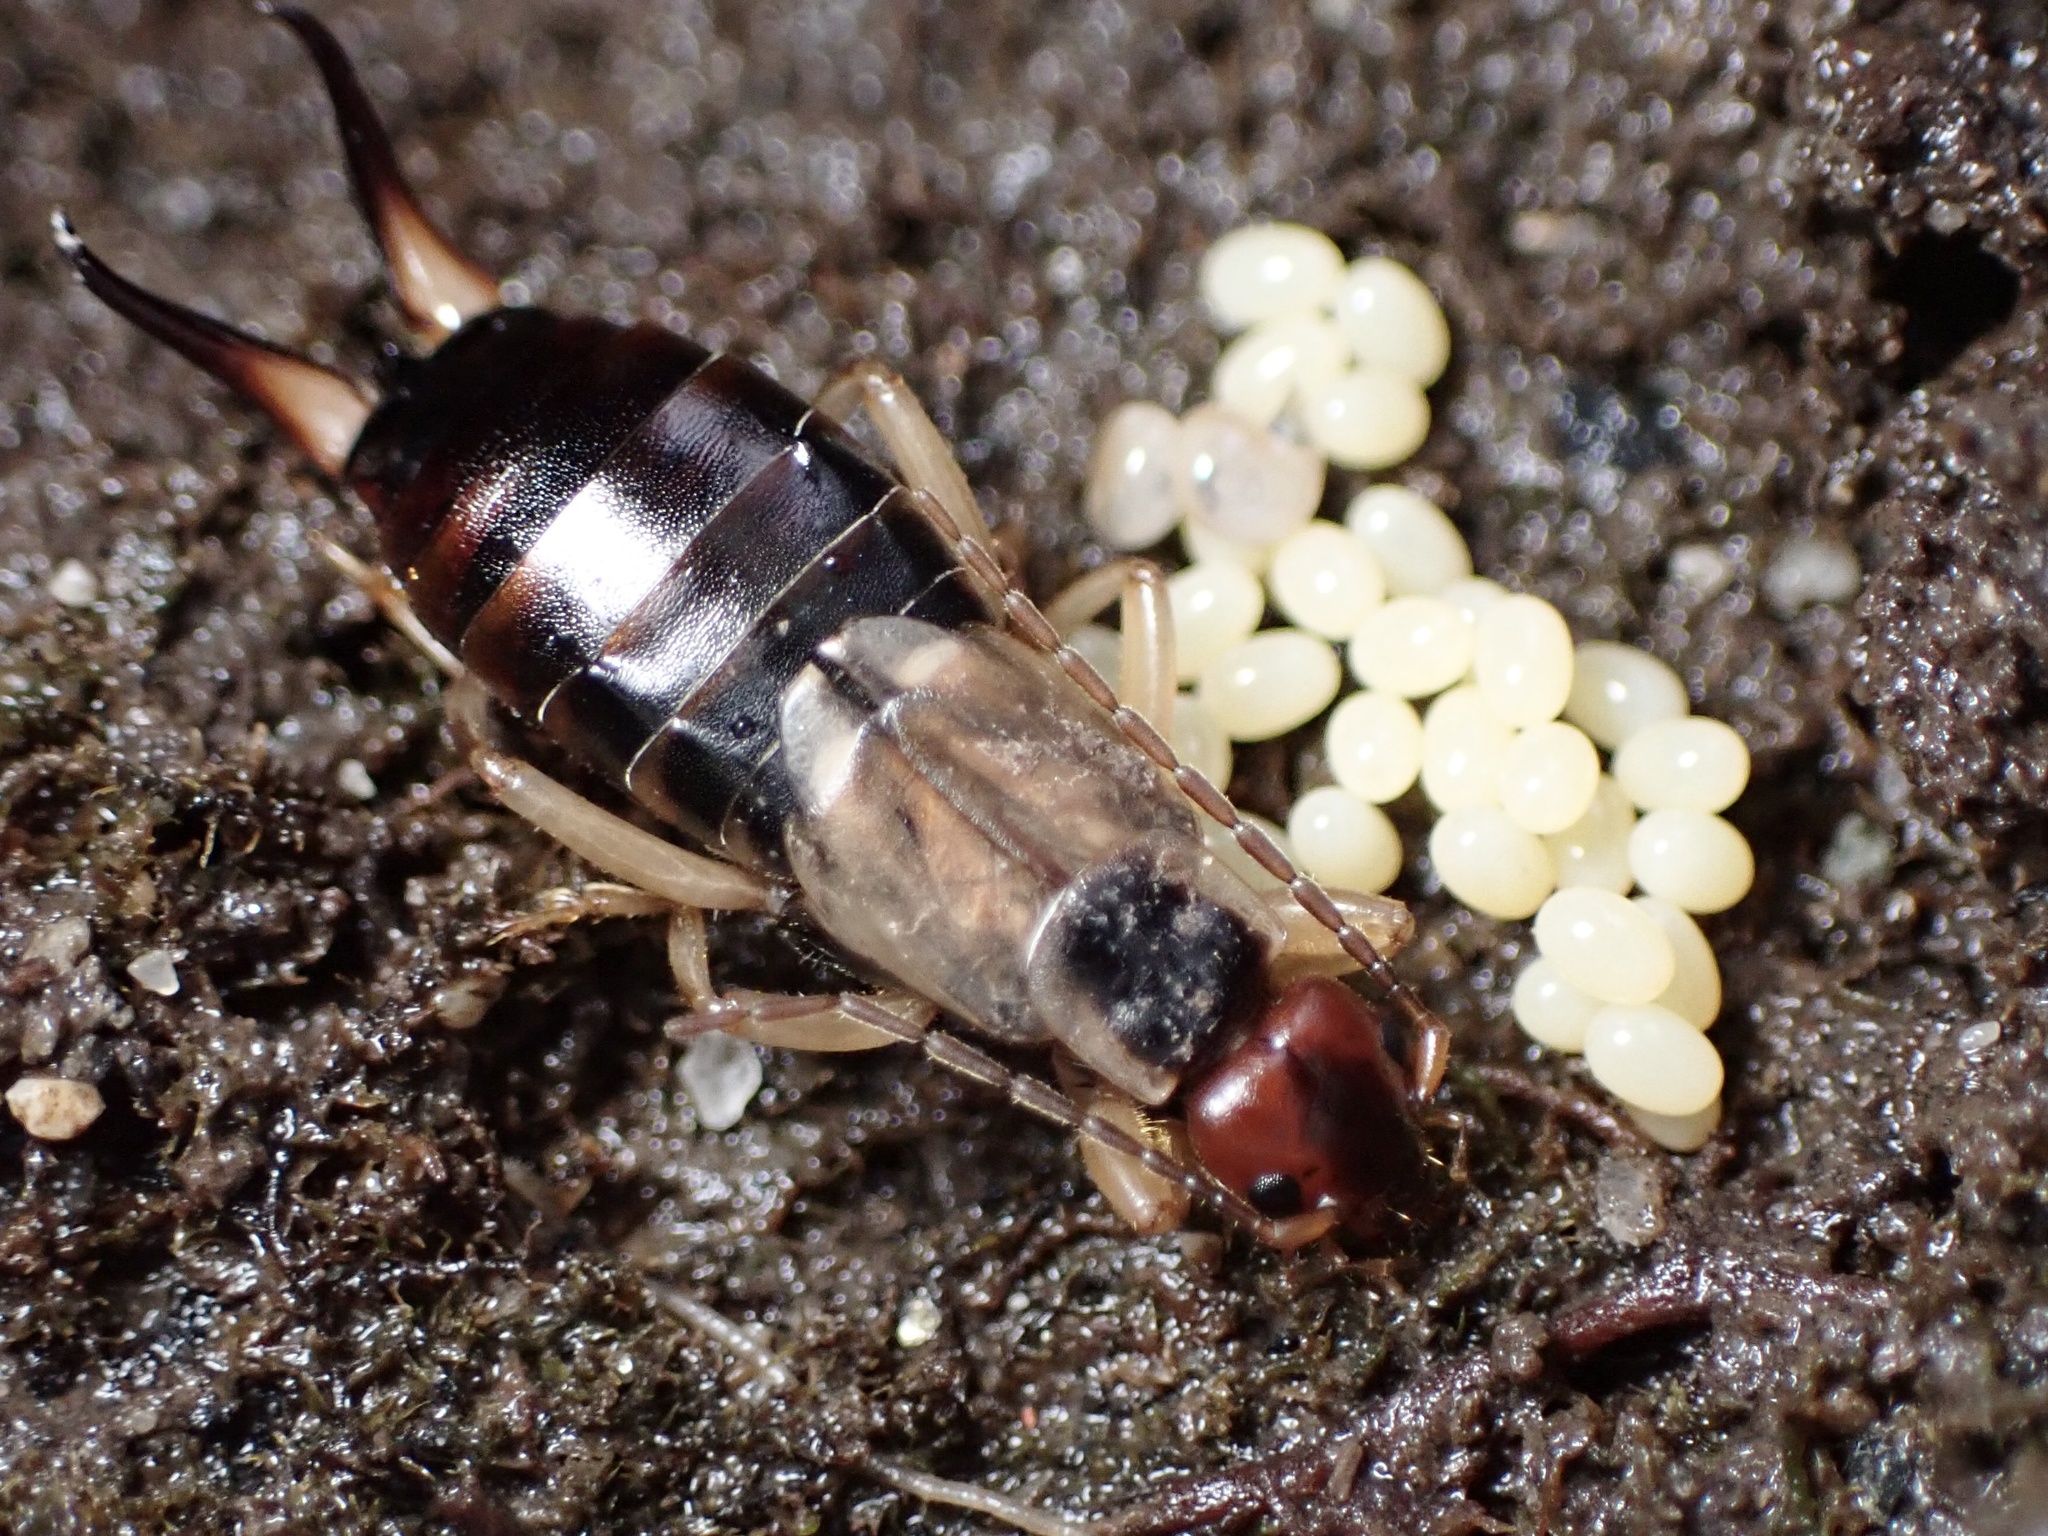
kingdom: Animalia
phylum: Arthropoda
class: Insecta
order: Dermaptera
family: Forficulidae
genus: Forficula
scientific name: Forficula
